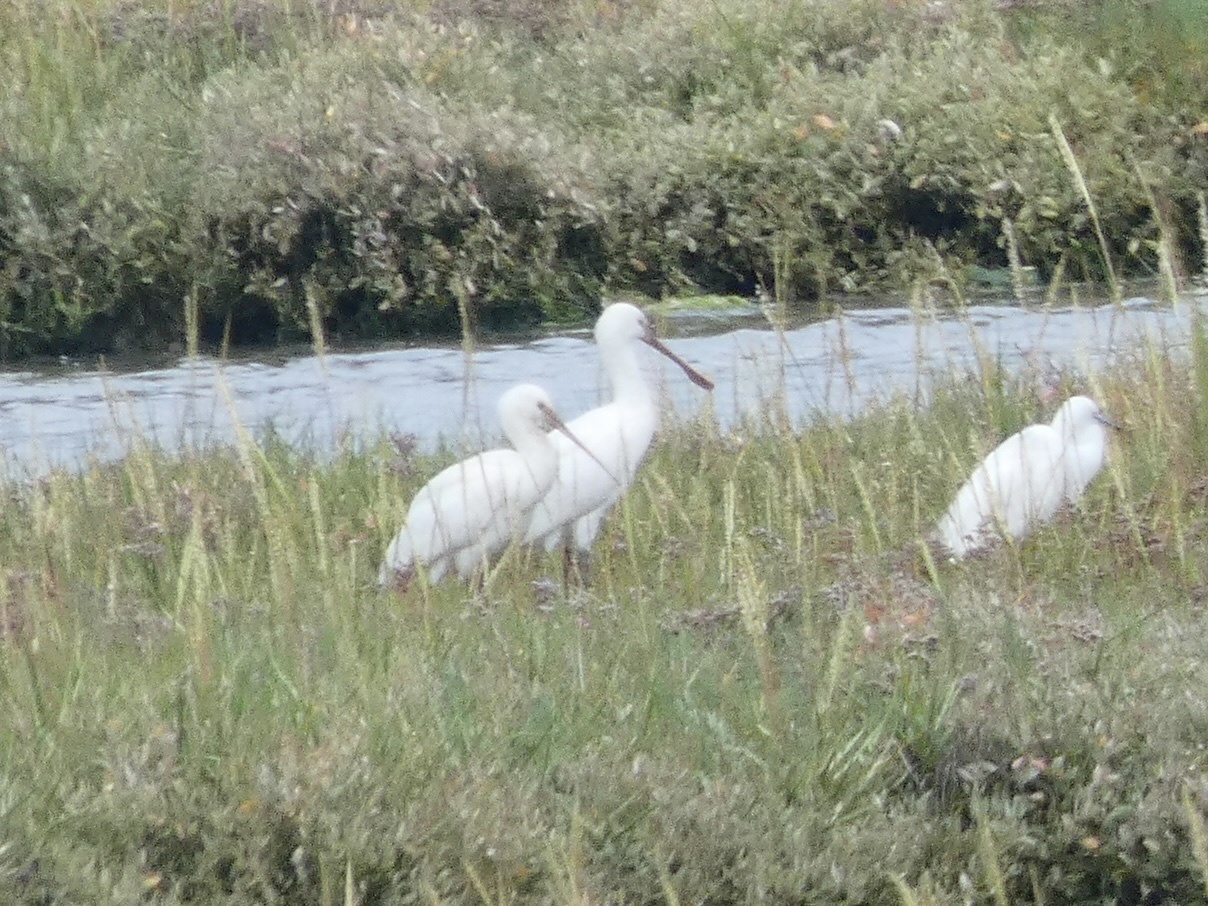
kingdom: Animalia
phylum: Chordata
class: Aves
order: Pelecaniformes
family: Threskiornithidae
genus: Platalea
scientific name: Platalea leucorodia
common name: Eurasian spoonbill
